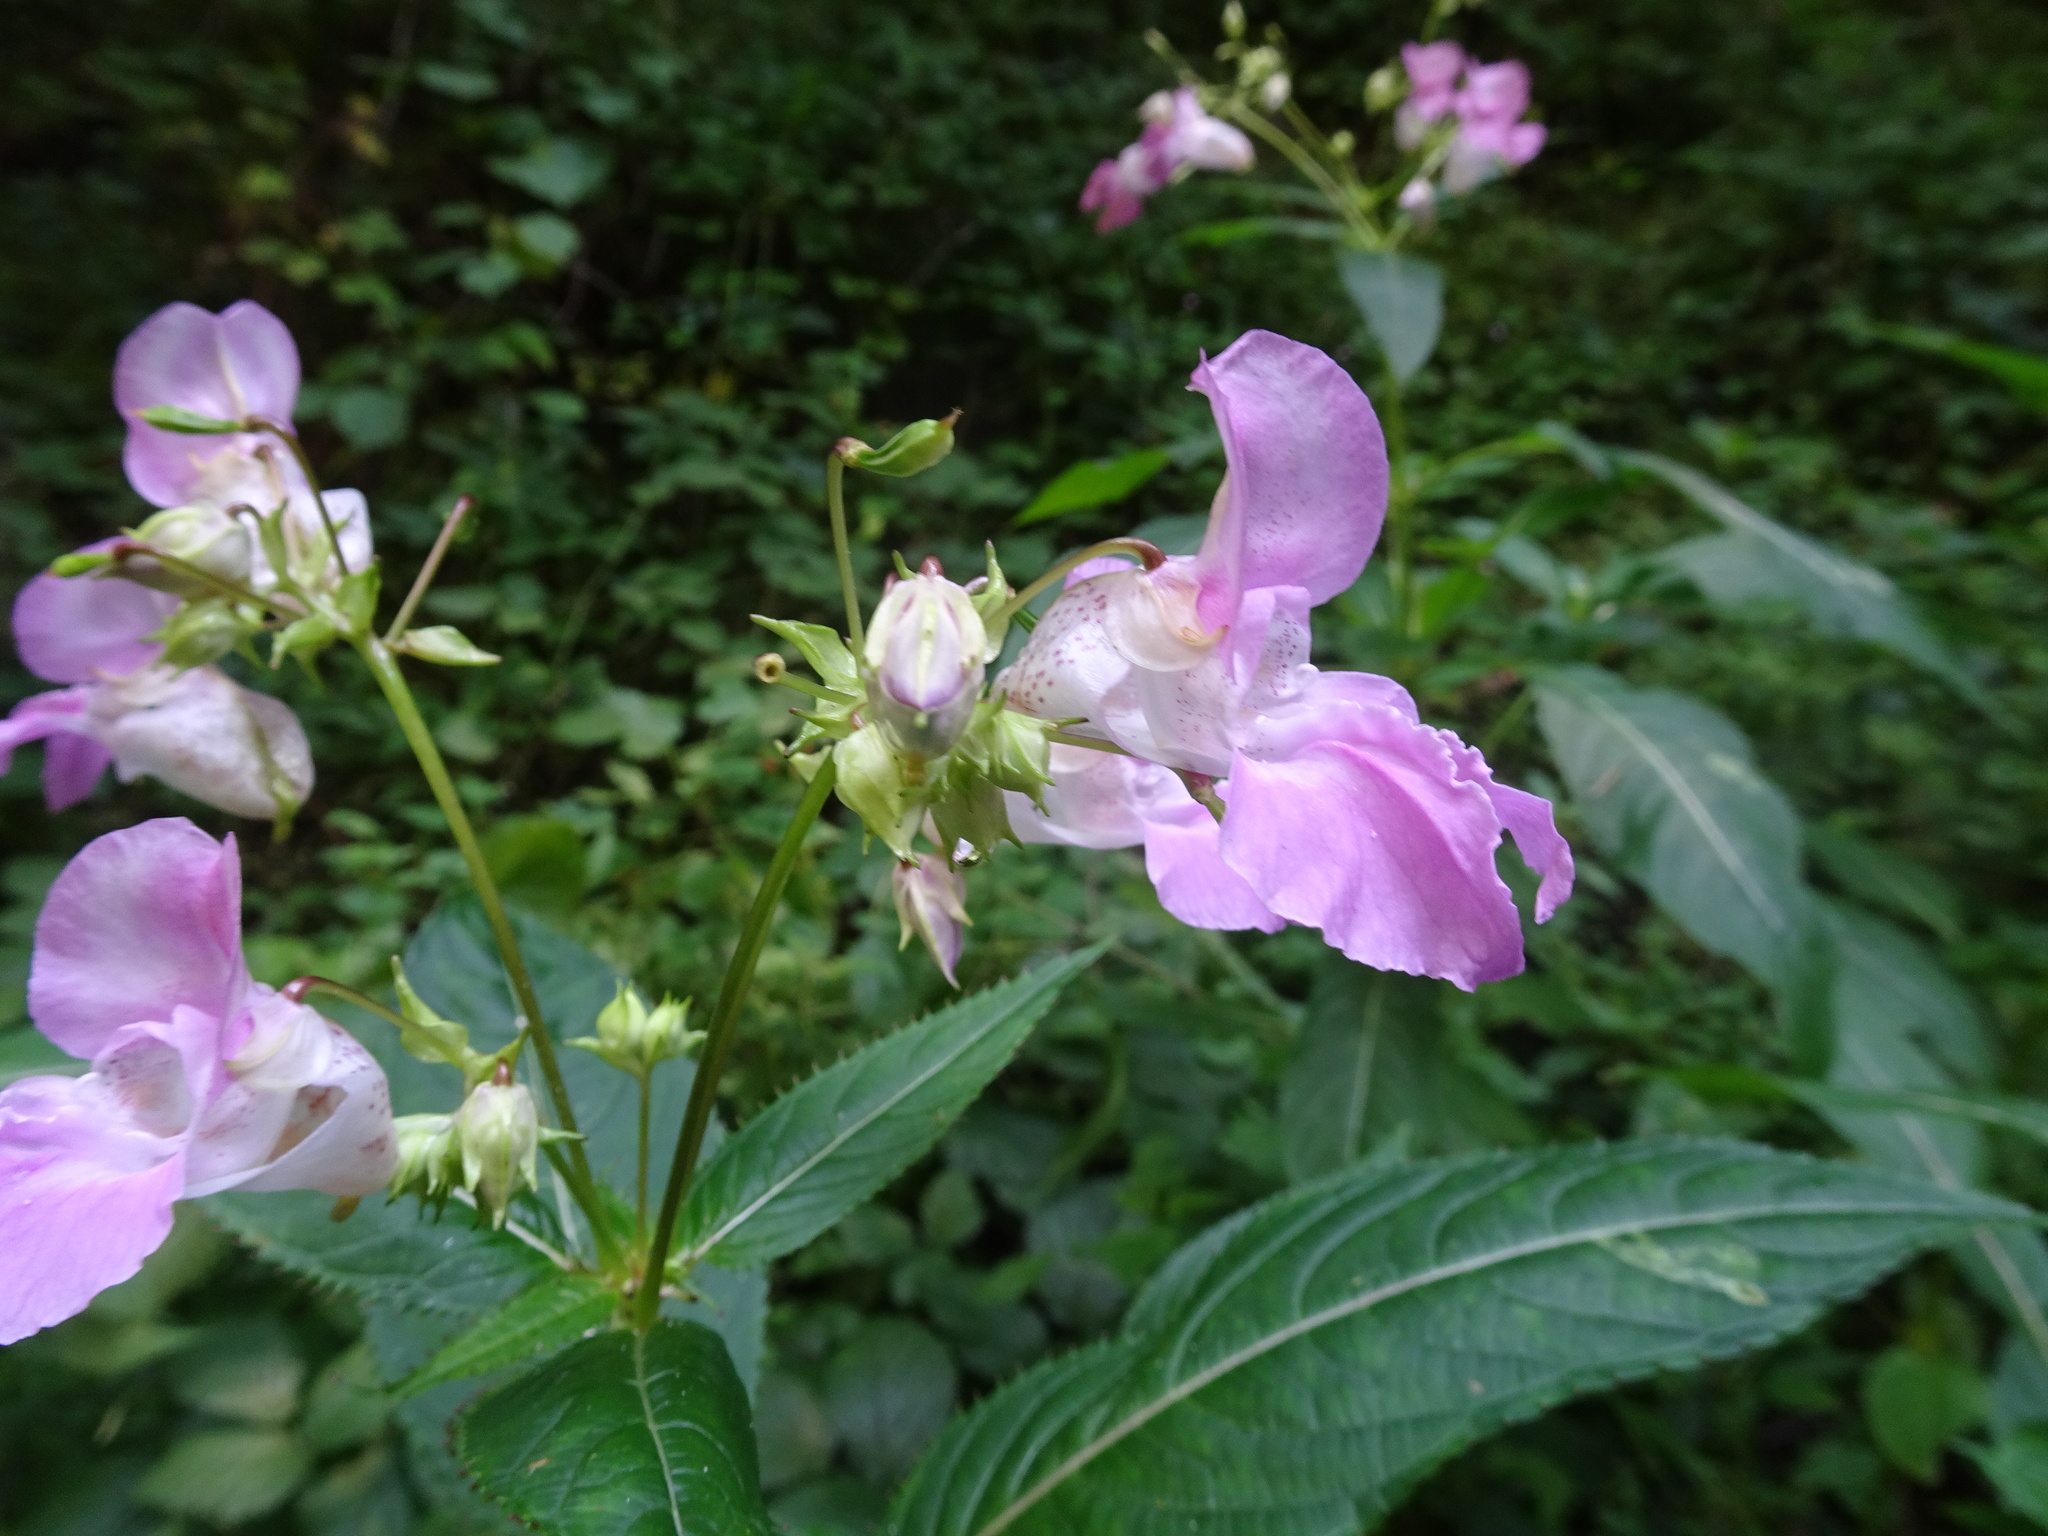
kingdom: Plantae
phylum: Tracheophyta
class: Magnoliopsida
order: Ericales
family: Balsaminaceae
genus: Impatiens
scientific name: Impatiens glandulifera
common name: Himalayan balsam
